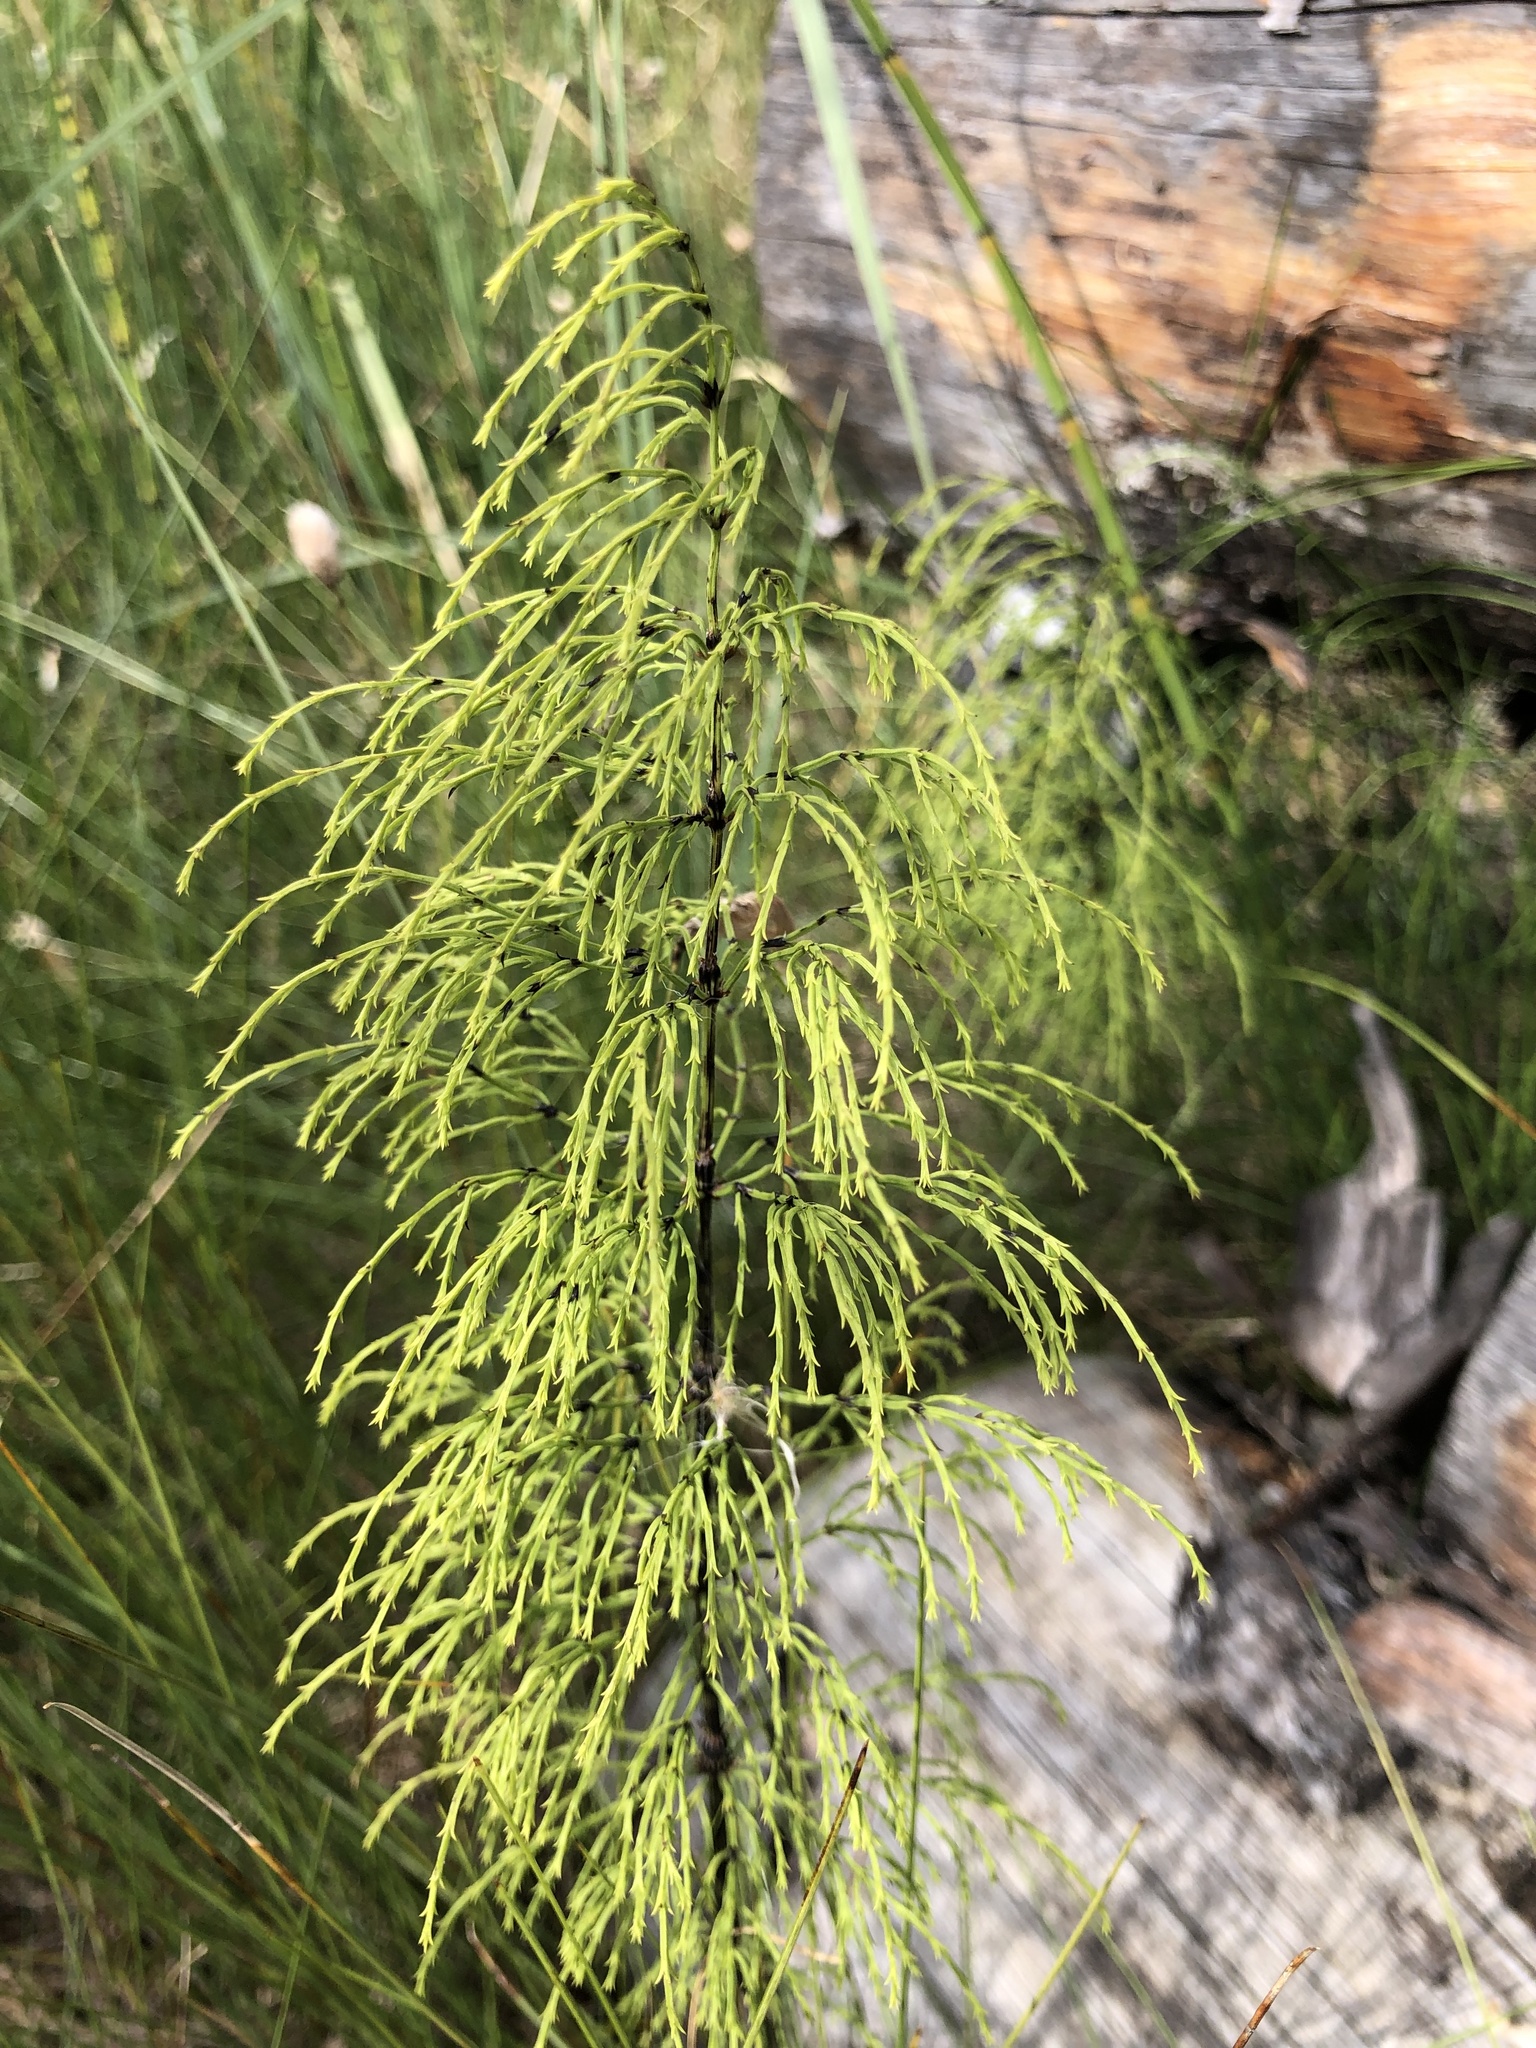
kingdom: Plantae
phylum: Tracheophyta
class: Polypodiopsida
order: Equisetales
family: Equisetaceae
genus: Equisetum
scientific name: Equisetum sylvaticum
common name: Wood horsetail
